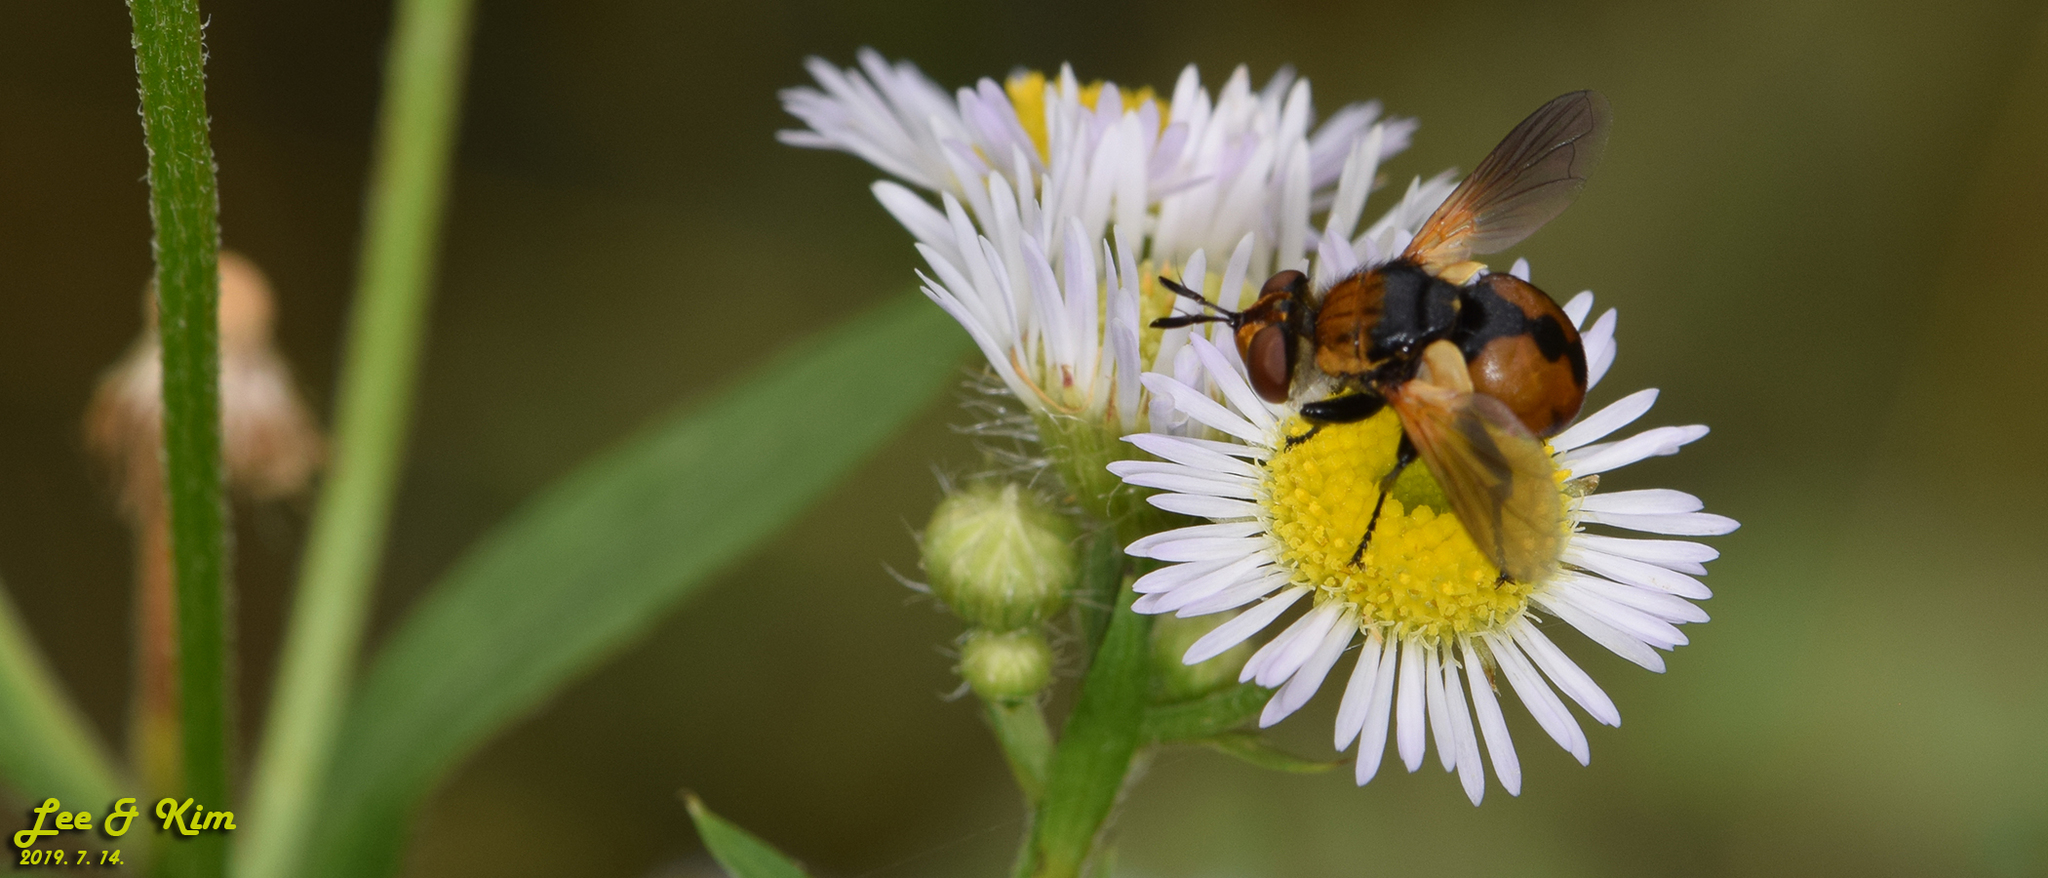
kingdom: Animalia
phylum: Arthropoda
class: Insecta
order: Diptera
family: Tachinidae
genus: Gymnosoma
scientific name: Gymnosoma rotundatum
